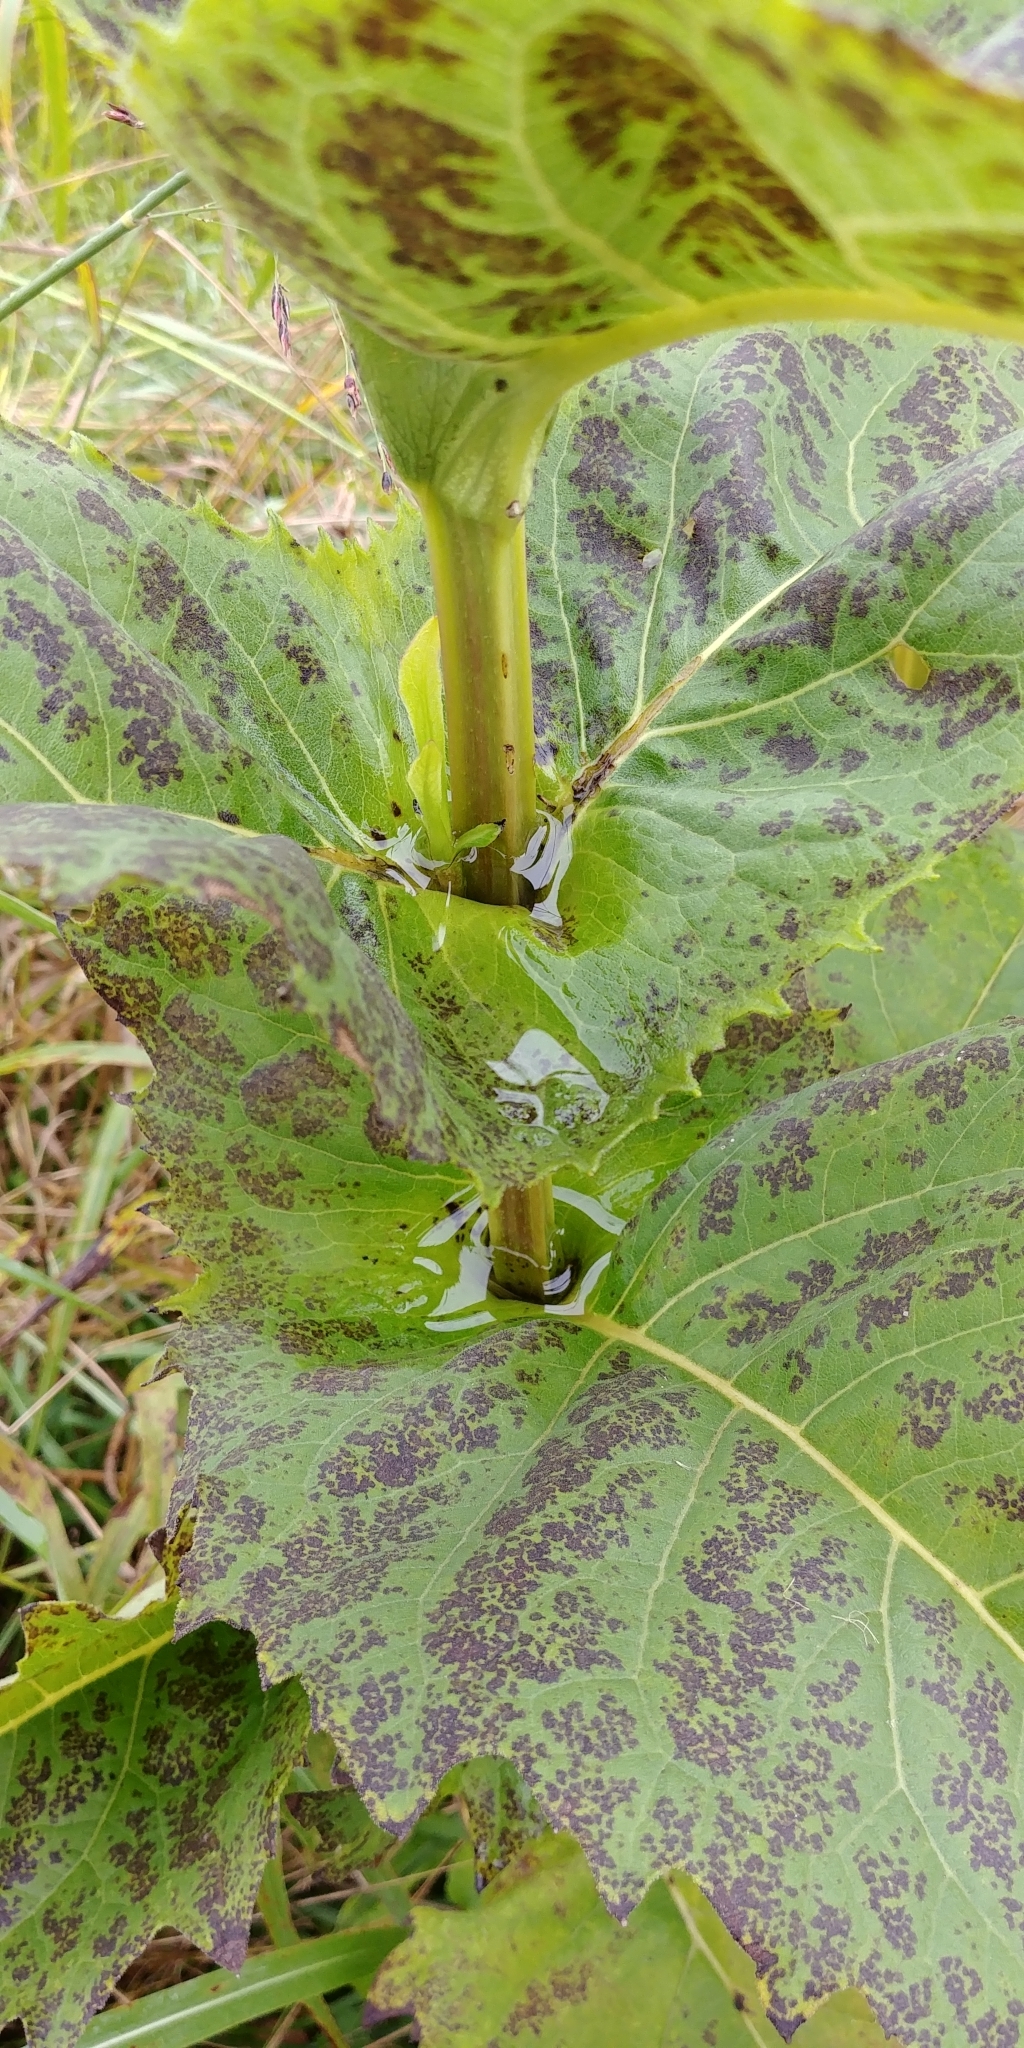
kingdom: Plantae
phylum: Tracheophyta
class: Magnoliopsida
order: Asterales
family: Asteraceae
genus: Silphium
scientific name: Silphium perfoliatum
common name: Cup-plant
